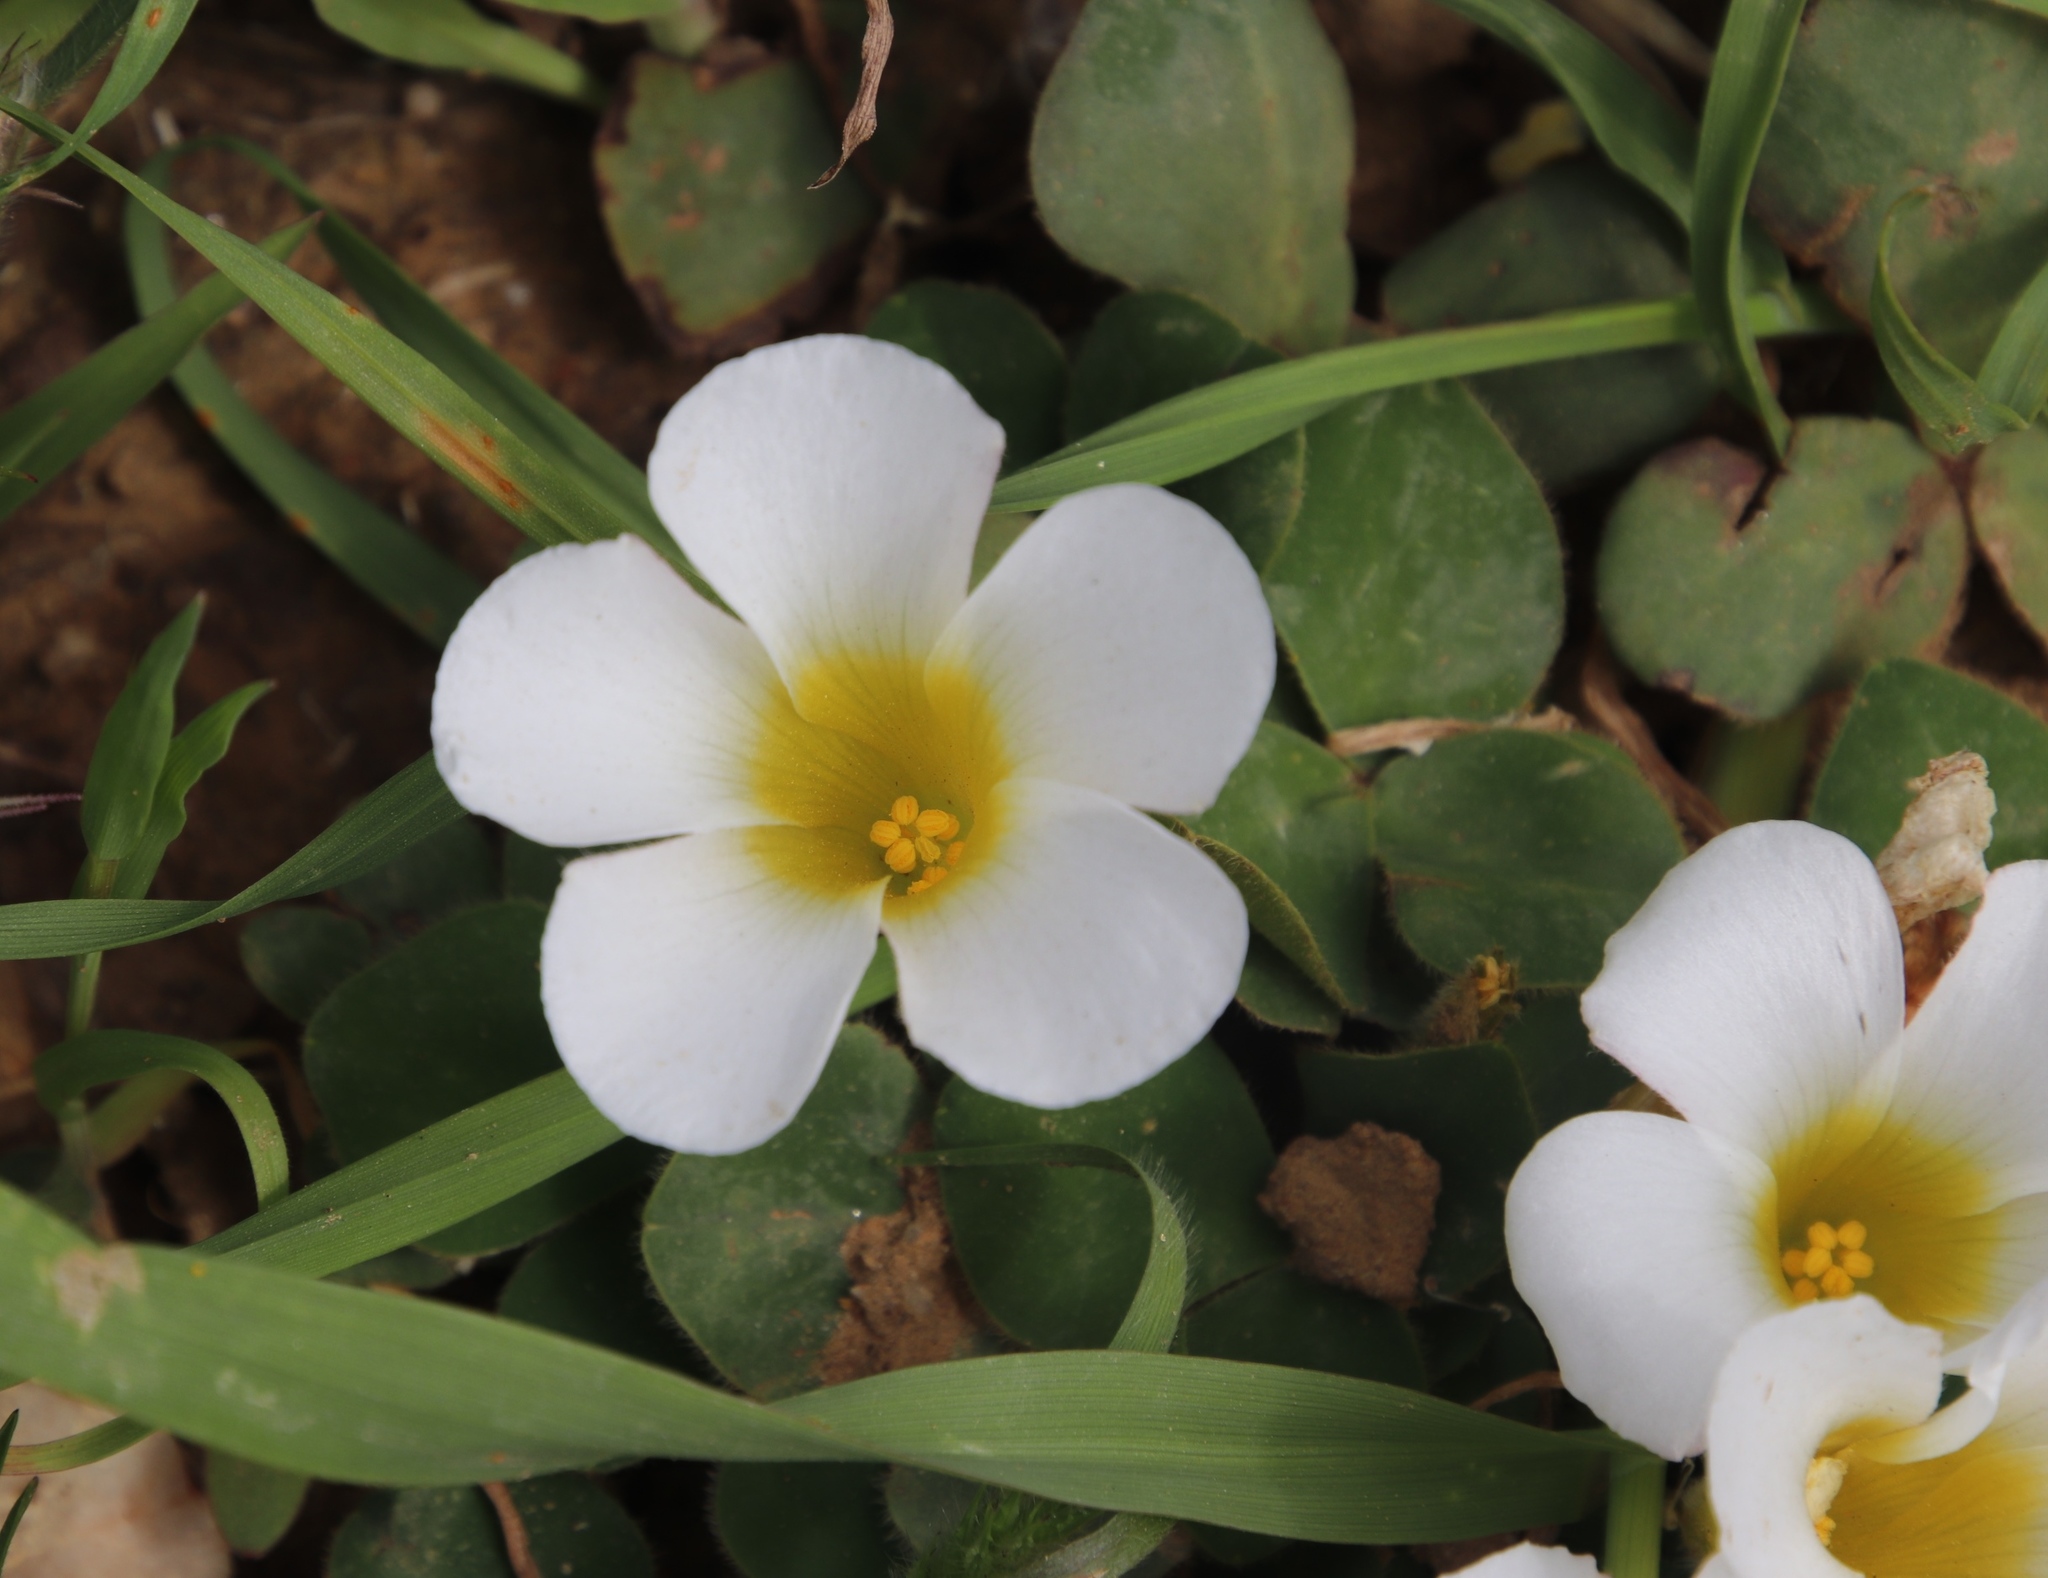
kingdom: Plantae
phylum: Tracheophyta
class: Magnoliopsida
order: Oxalidales
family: Oxalidaceae
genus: Oxalis
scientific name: Oxalis purpurea
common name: Purple woodsorrel
